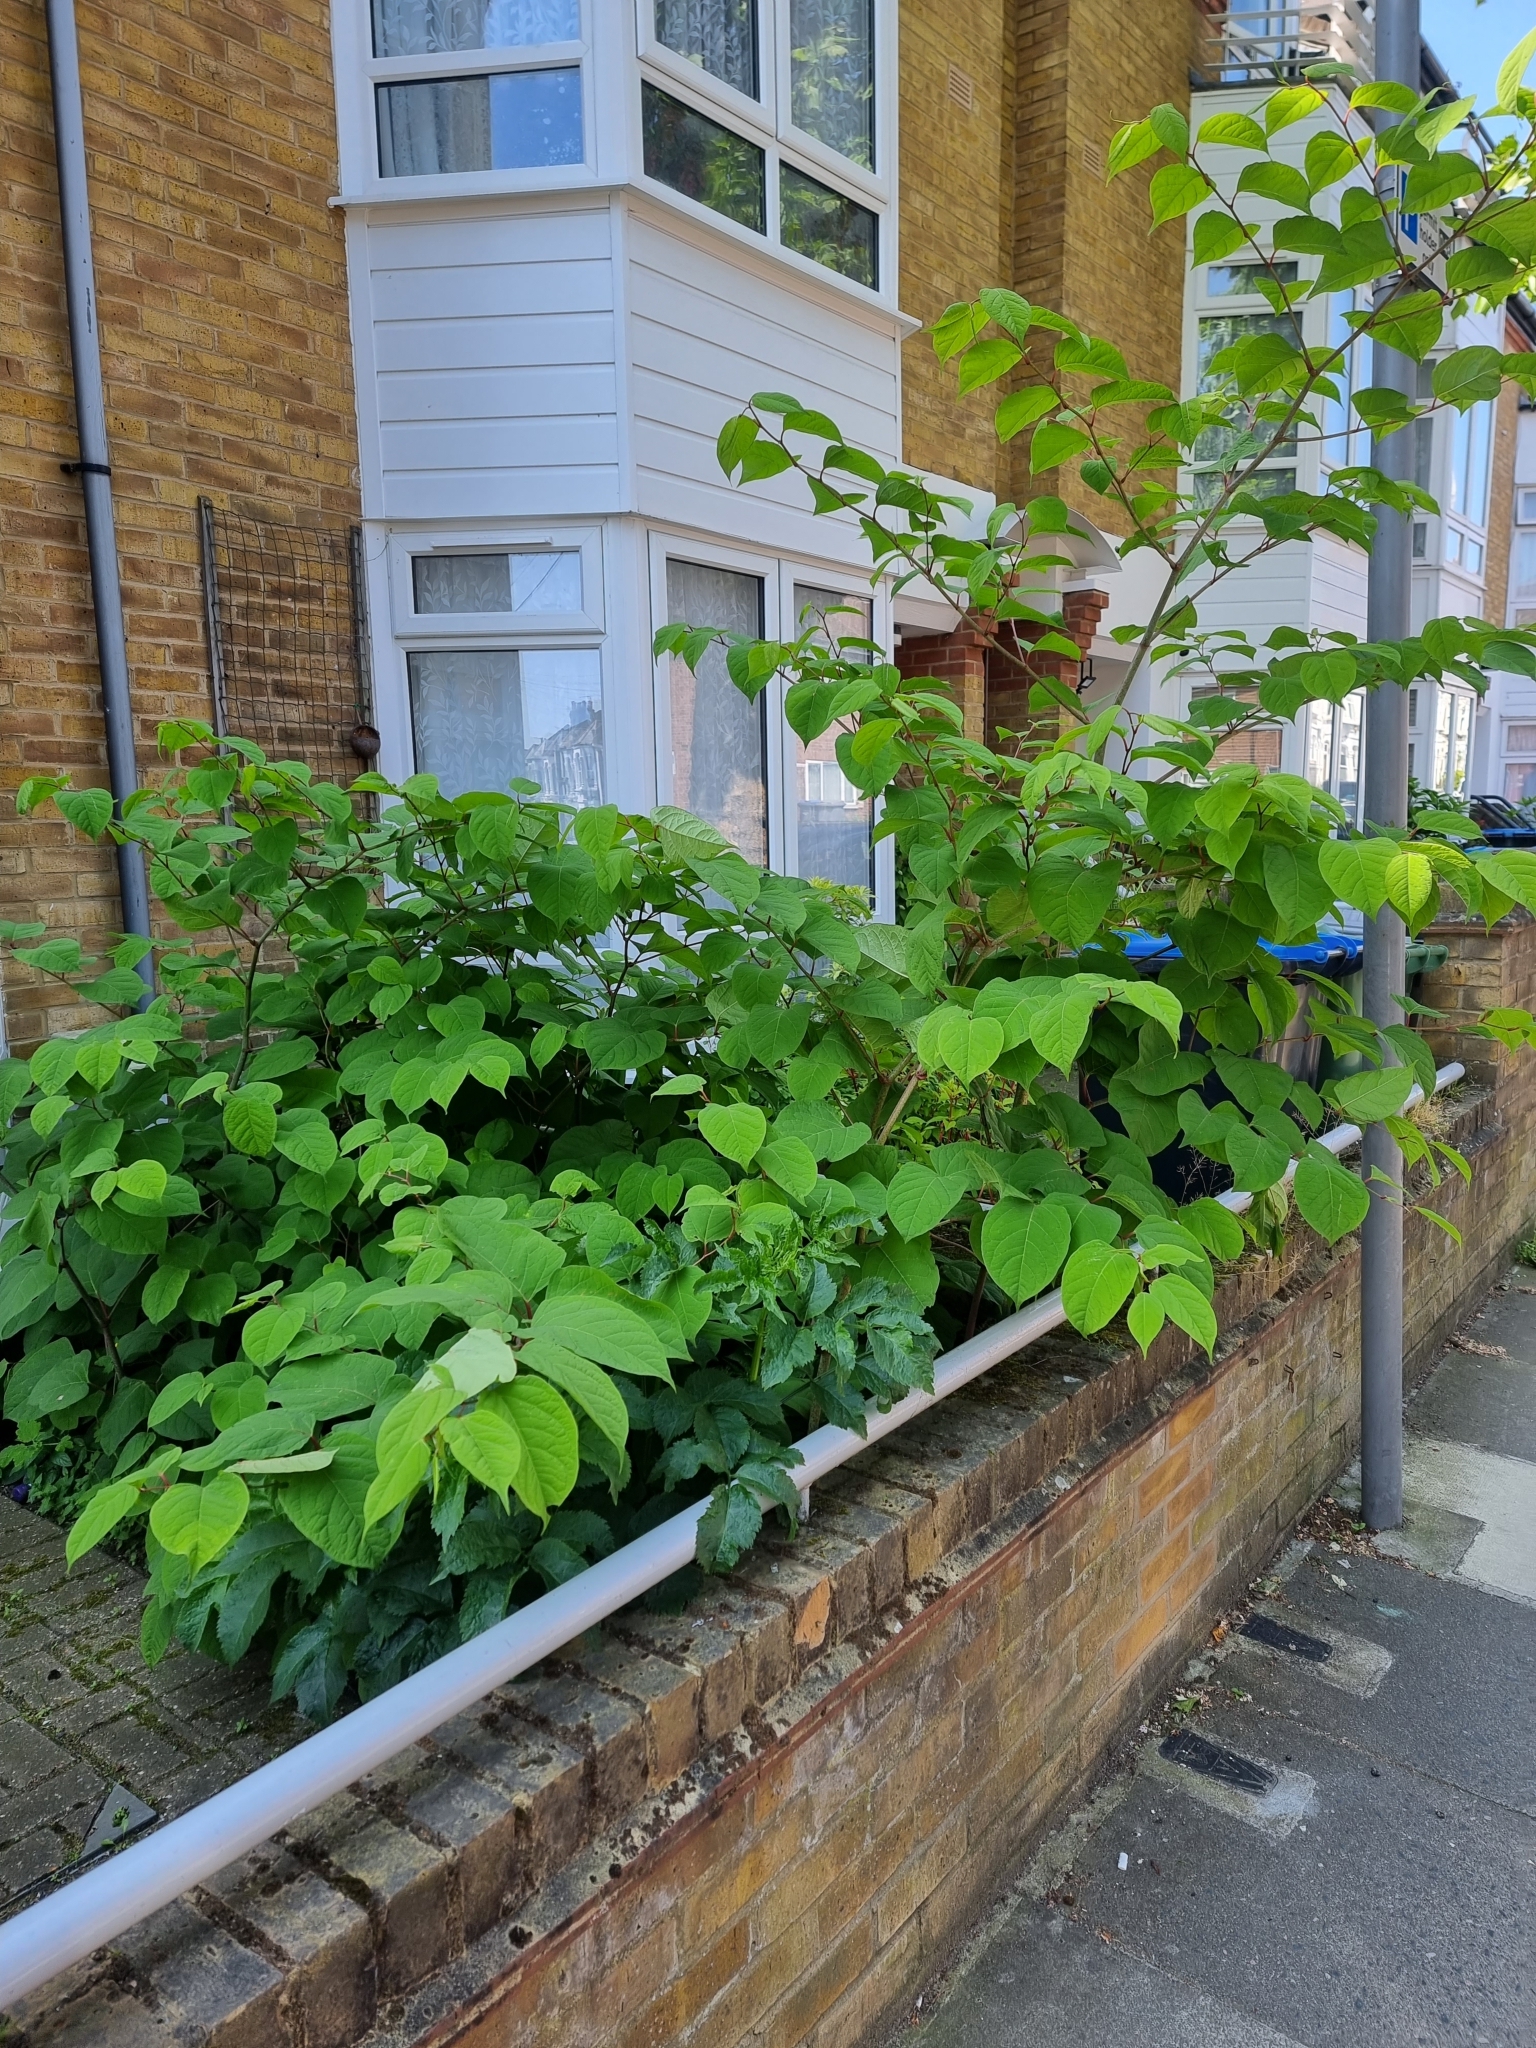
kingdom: Plantae
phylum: Tracheophyta
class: Magnoliopsida
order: Caryophyllales
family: Polygonaceae
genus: Reynoutria
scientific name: Reynoutria japonica
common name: Japanese knotweed
